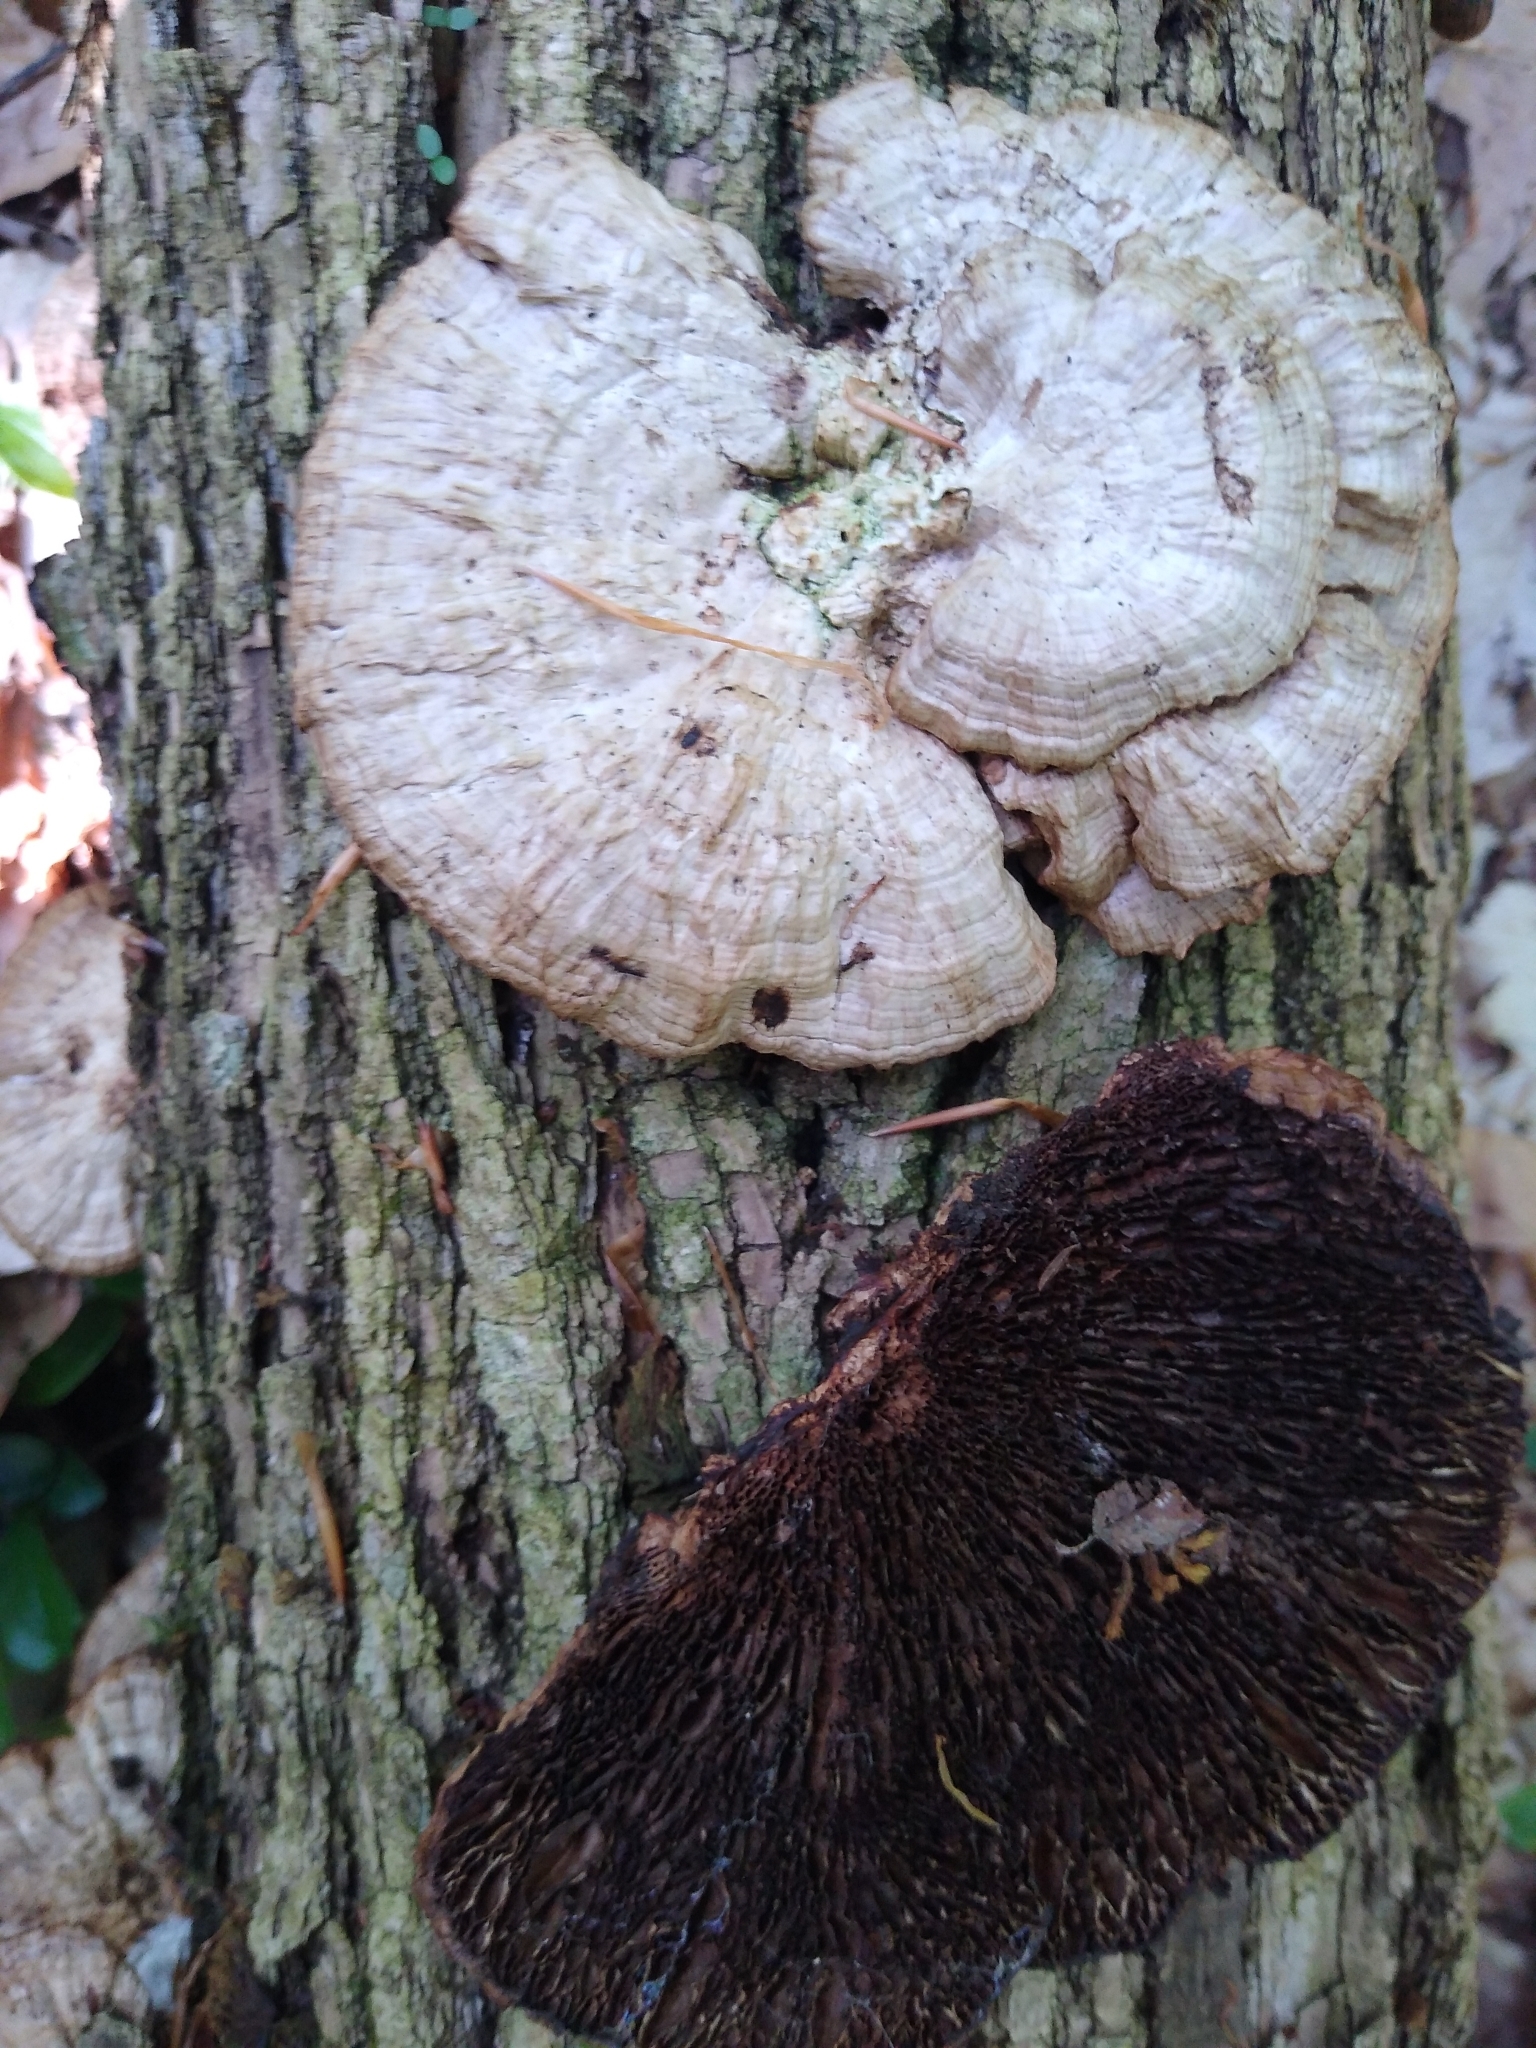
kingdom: Fungi
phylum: Basidiomycota
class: Agaricomycetes
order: Polyporales
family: Polyporaceae
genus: Daedaleopsis
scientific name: Daedaleopsis confragosa
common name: Blushing bracket
